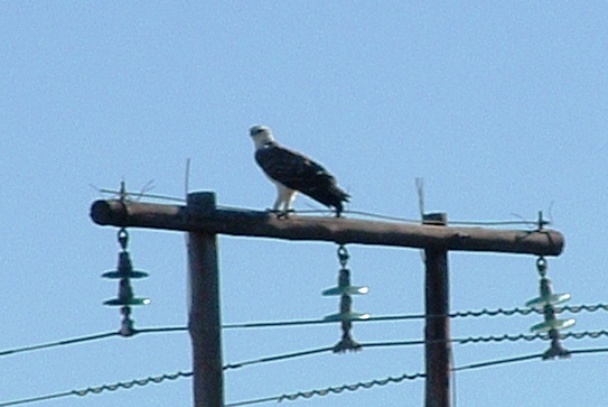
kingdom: Animalia
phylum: Chordata
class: Aves
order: Accipitriformes
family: Accipitridae
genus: Polemaetus
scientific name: Polemaetus bellicosus
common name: Martial eagle
